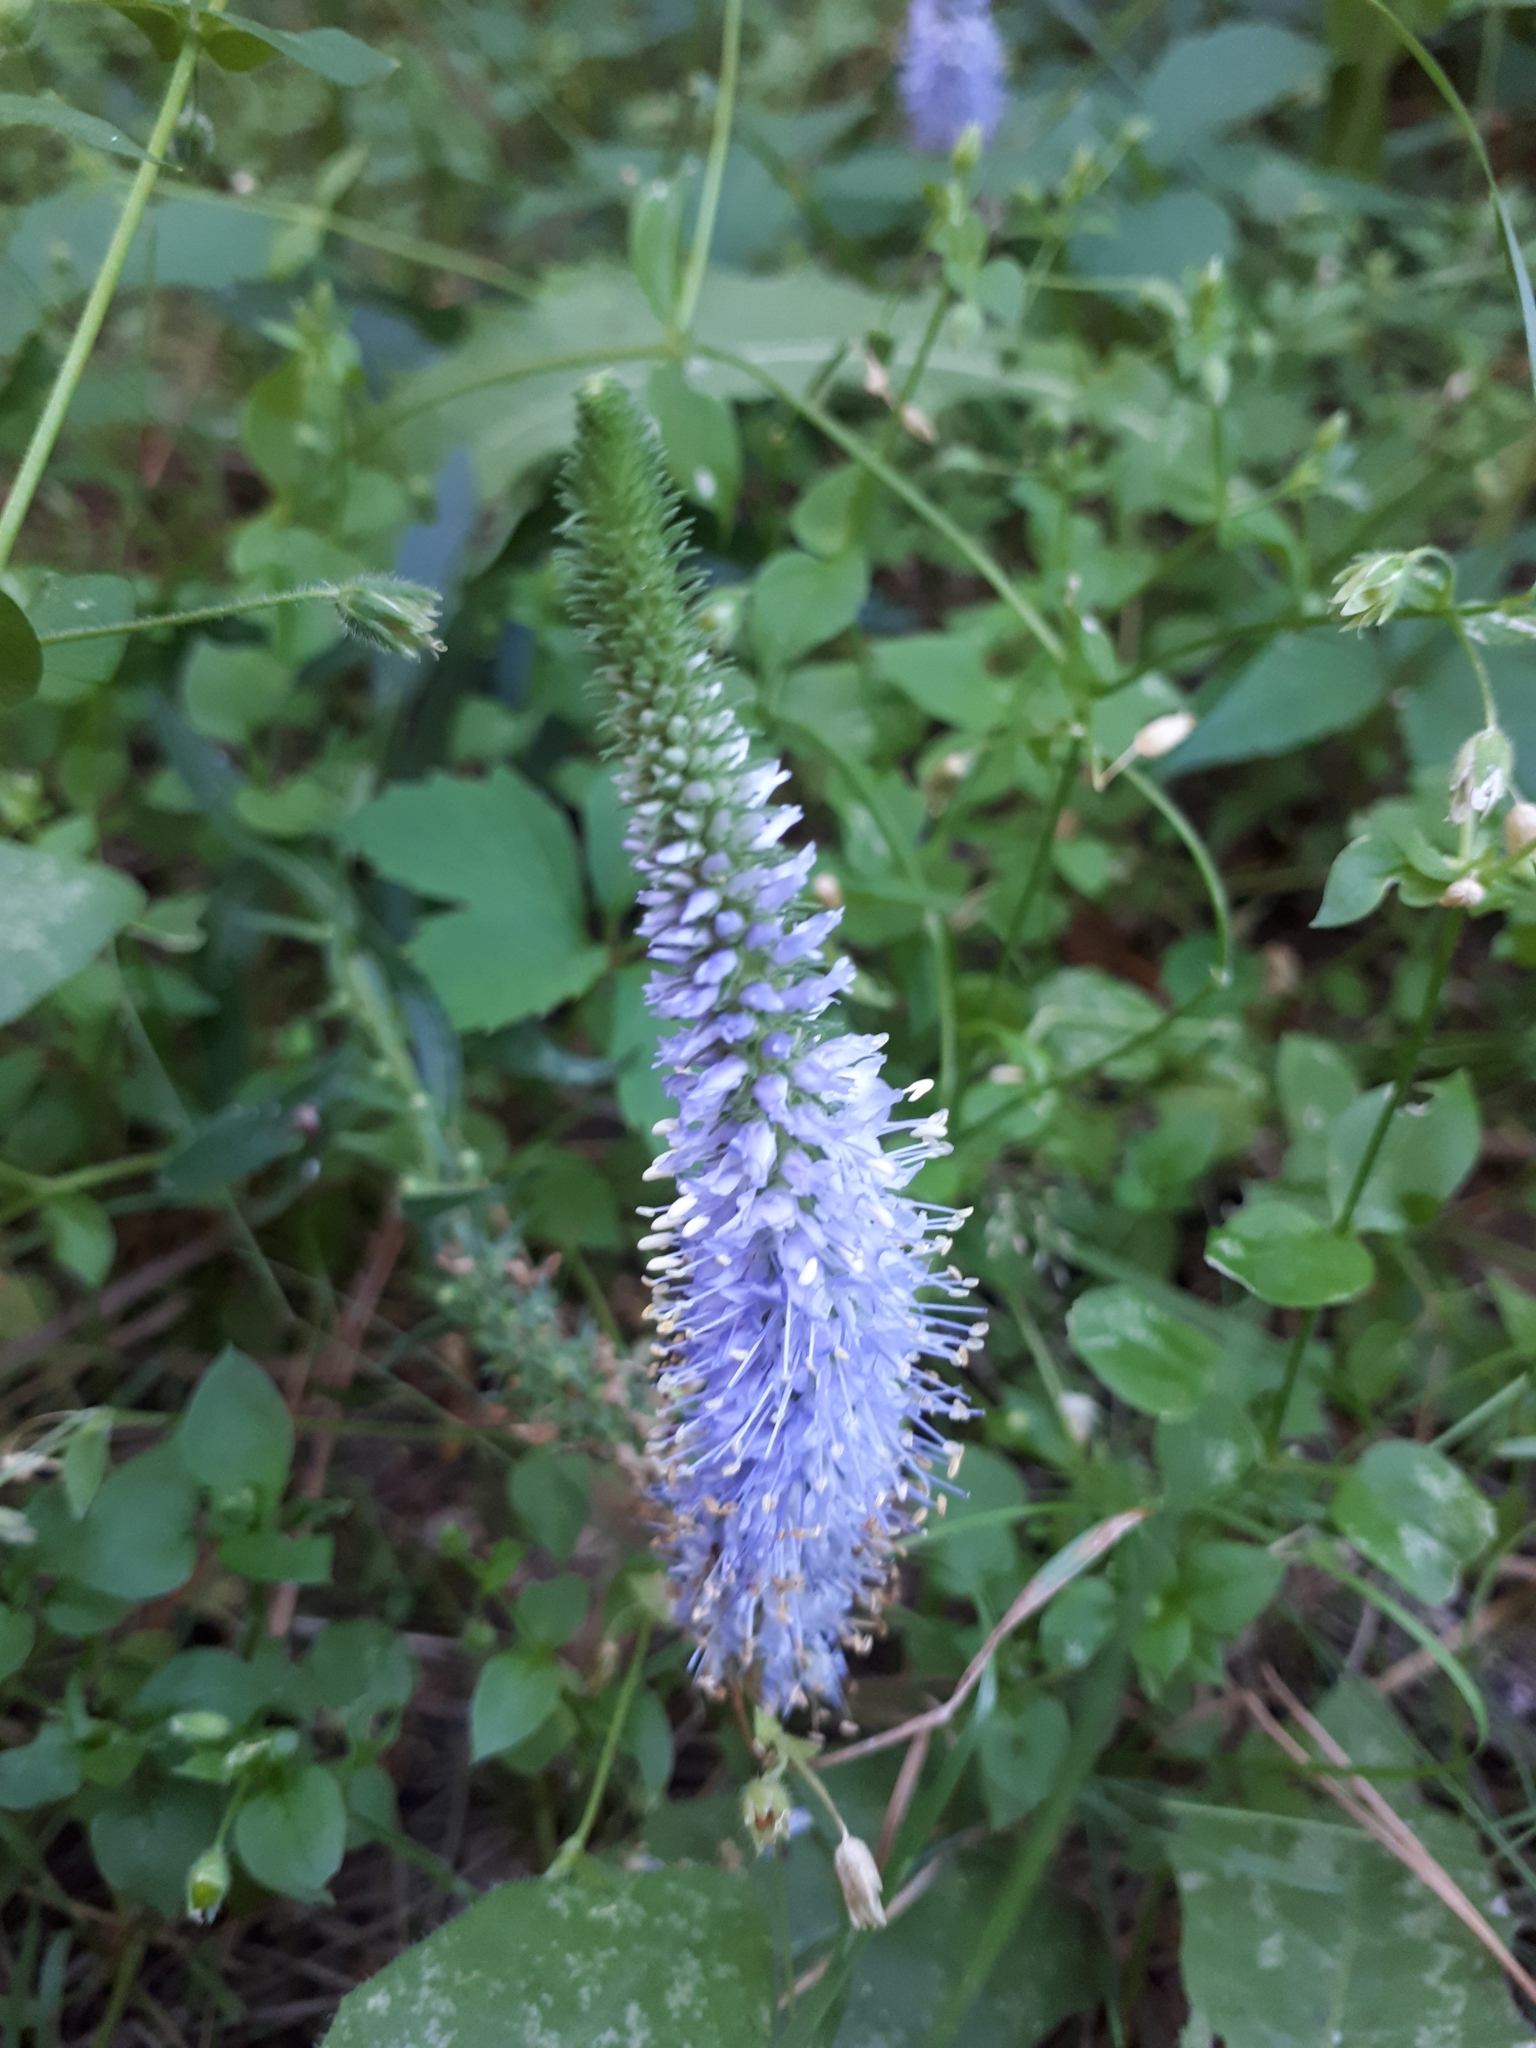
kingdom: Plantae
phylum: Tracheophyta
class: Magnoliopsida
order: Lamiales
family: Plantaginaceae
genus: Veronica
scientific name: Veronica spicata
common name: Spiked speedwell
